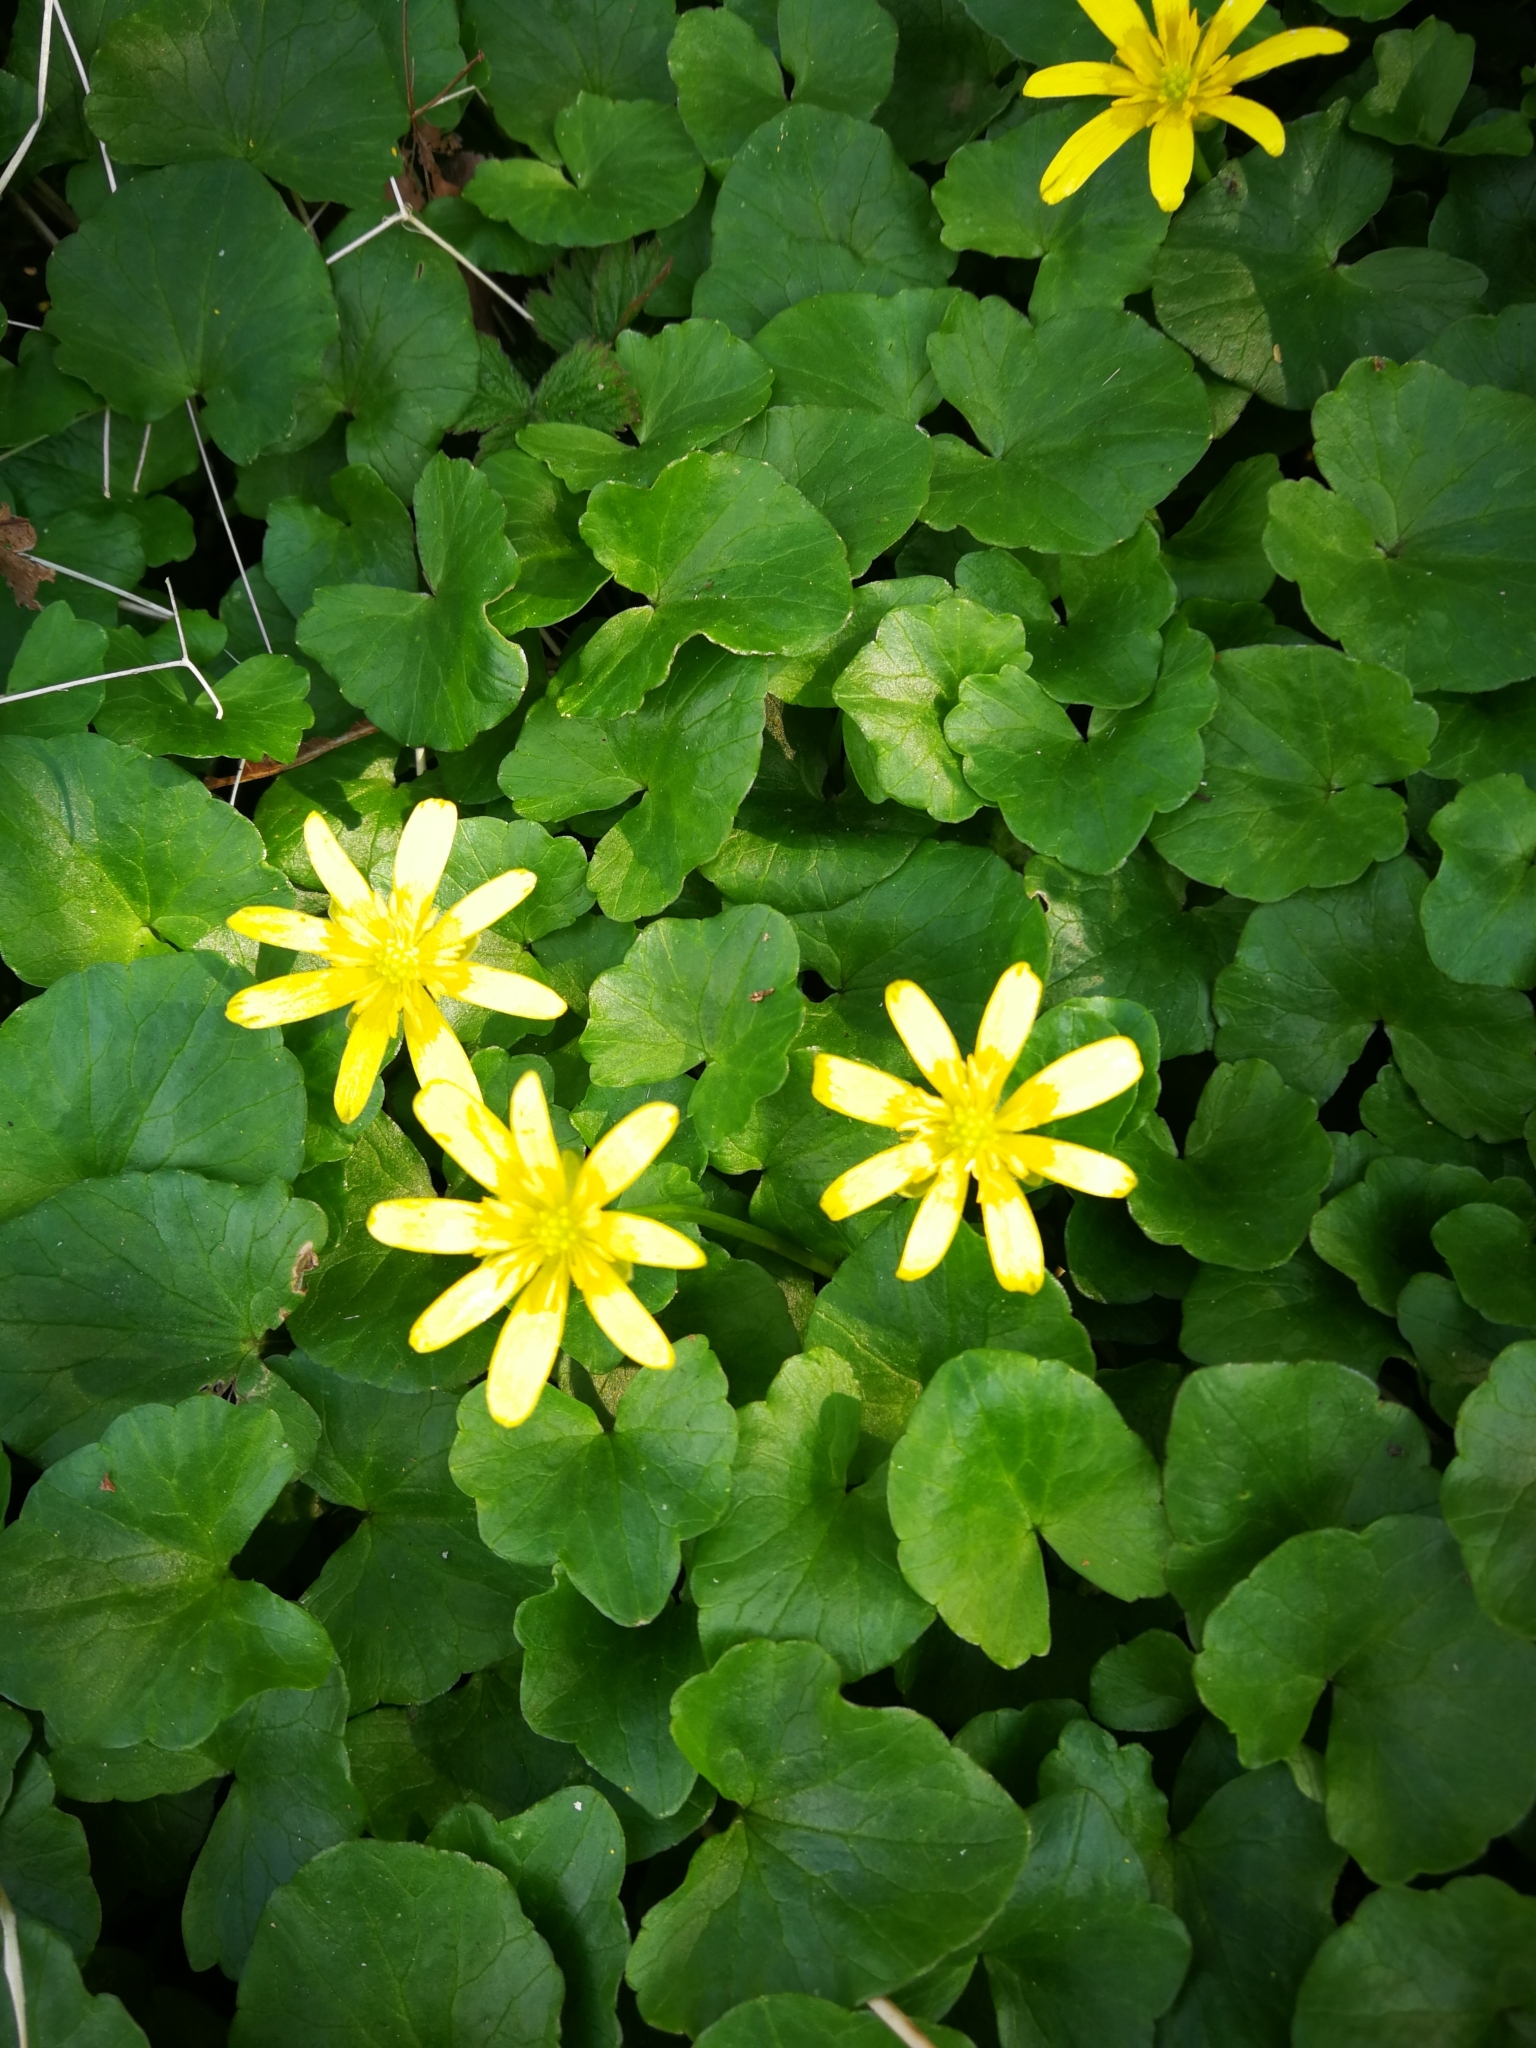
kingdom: Plantae
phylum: Tracheophyta
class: Magnoliopsida
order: Ranunculales
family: Ranunculaceae
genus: Ficaria
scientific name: Ficaria verna
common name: Lesser celandine
